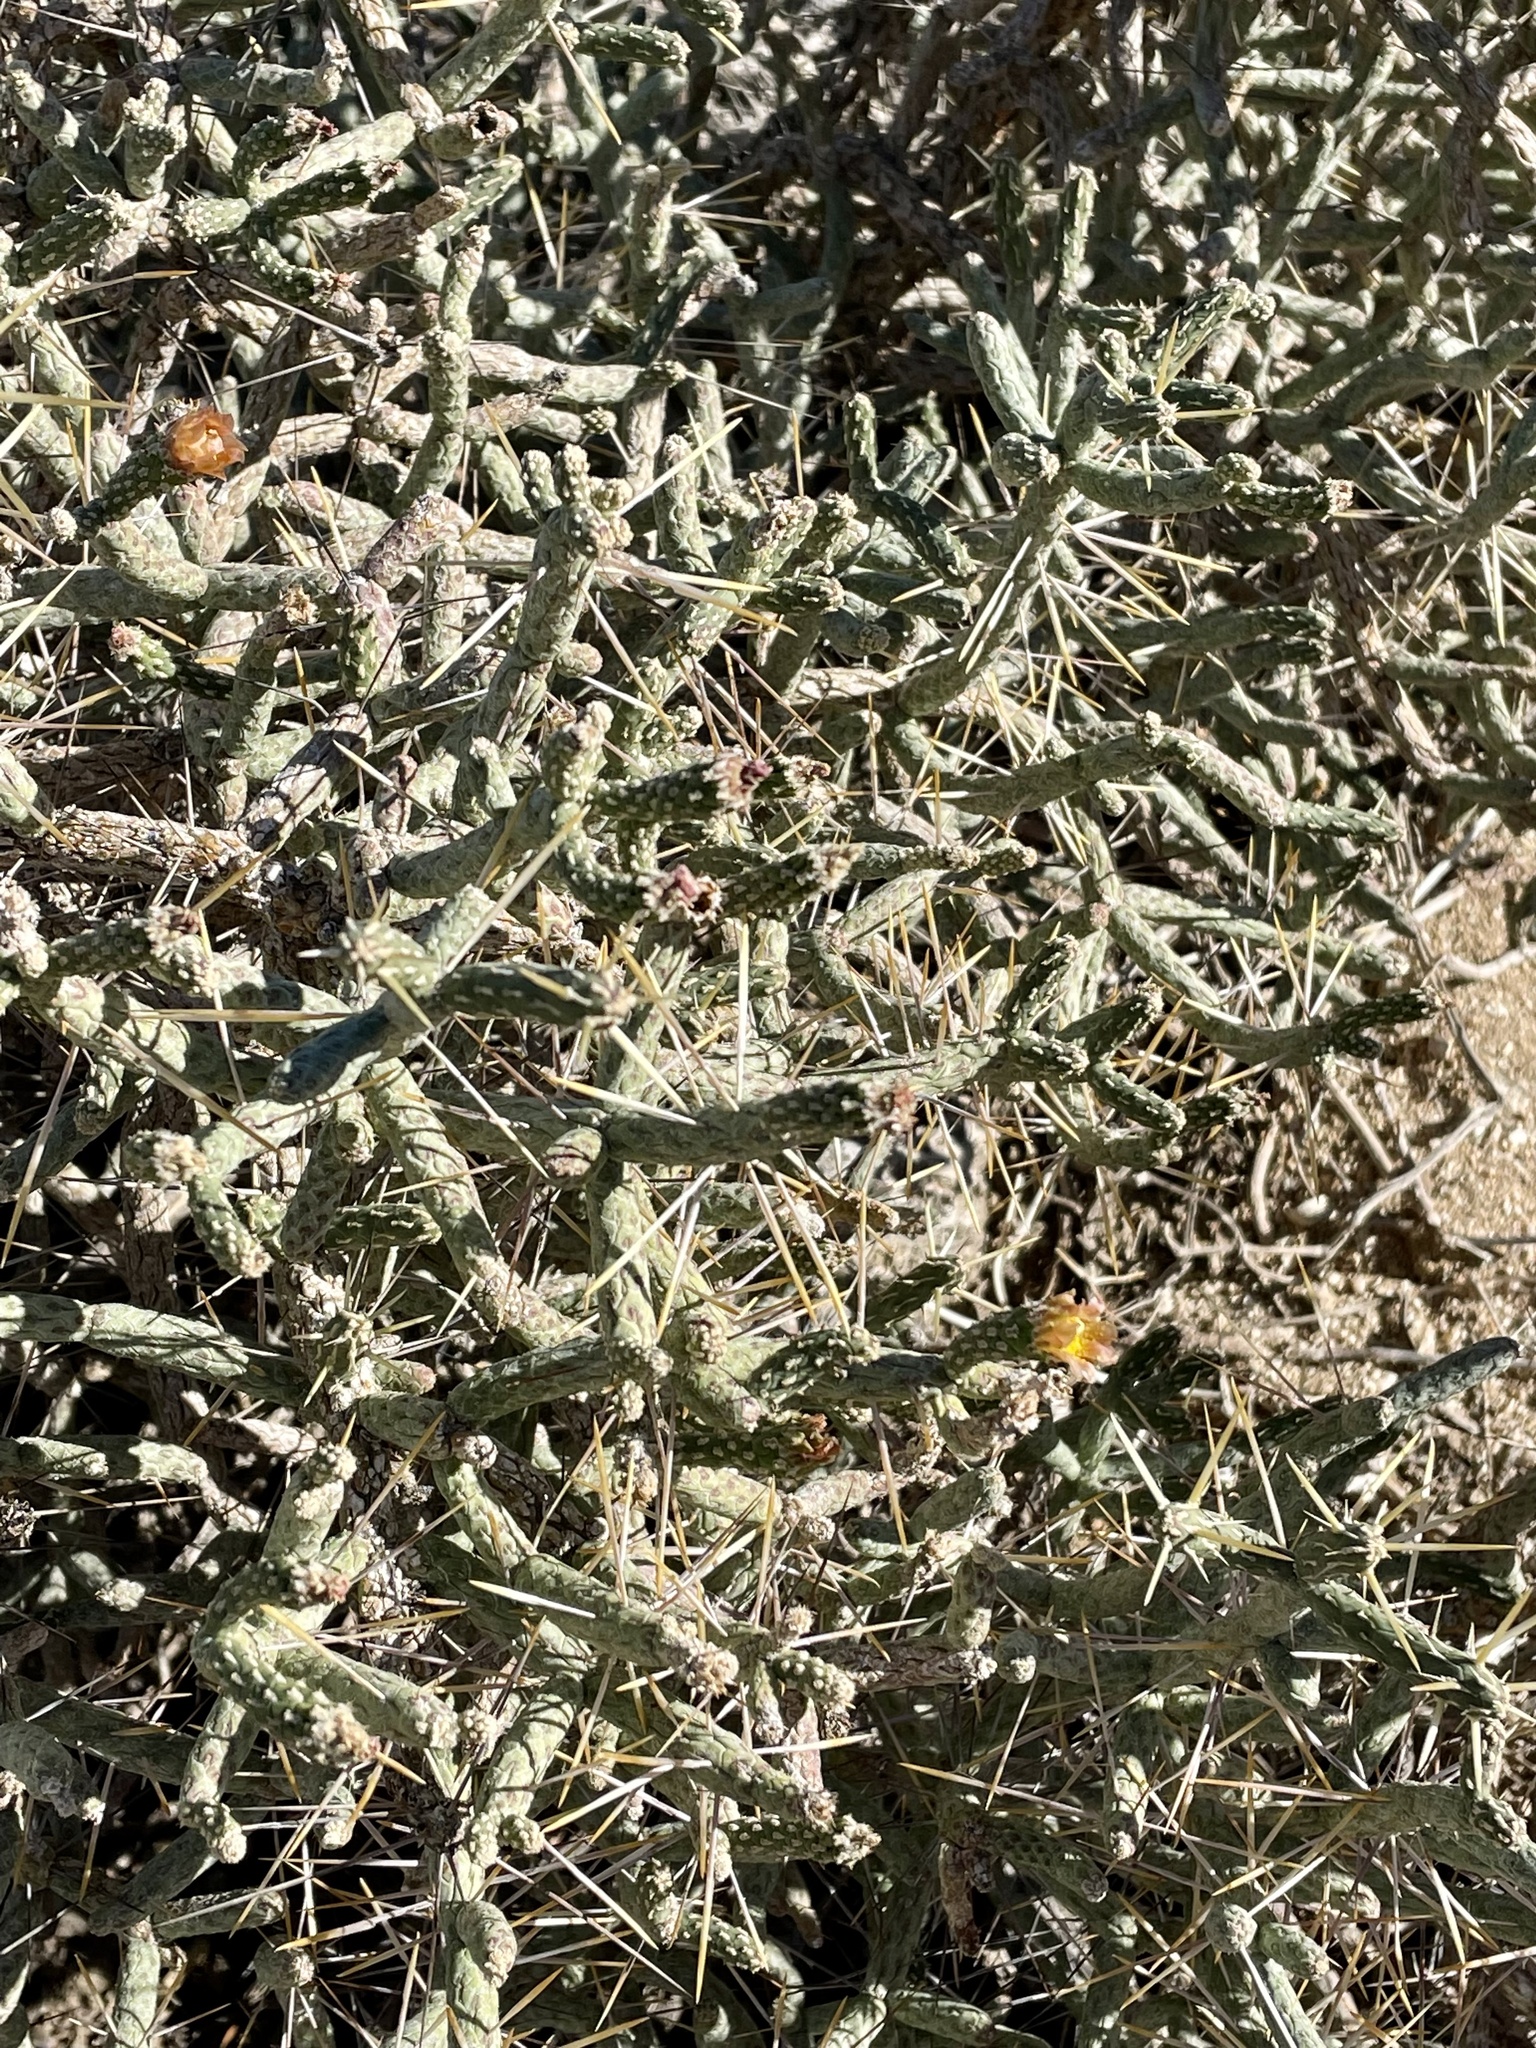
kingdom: Plantae
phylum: Tracheophyta
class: Magnoliopsida
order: Caryophyllales
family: Cactaceae
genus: Cylindropuntia
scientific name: Cylindropuntia ramosissima
